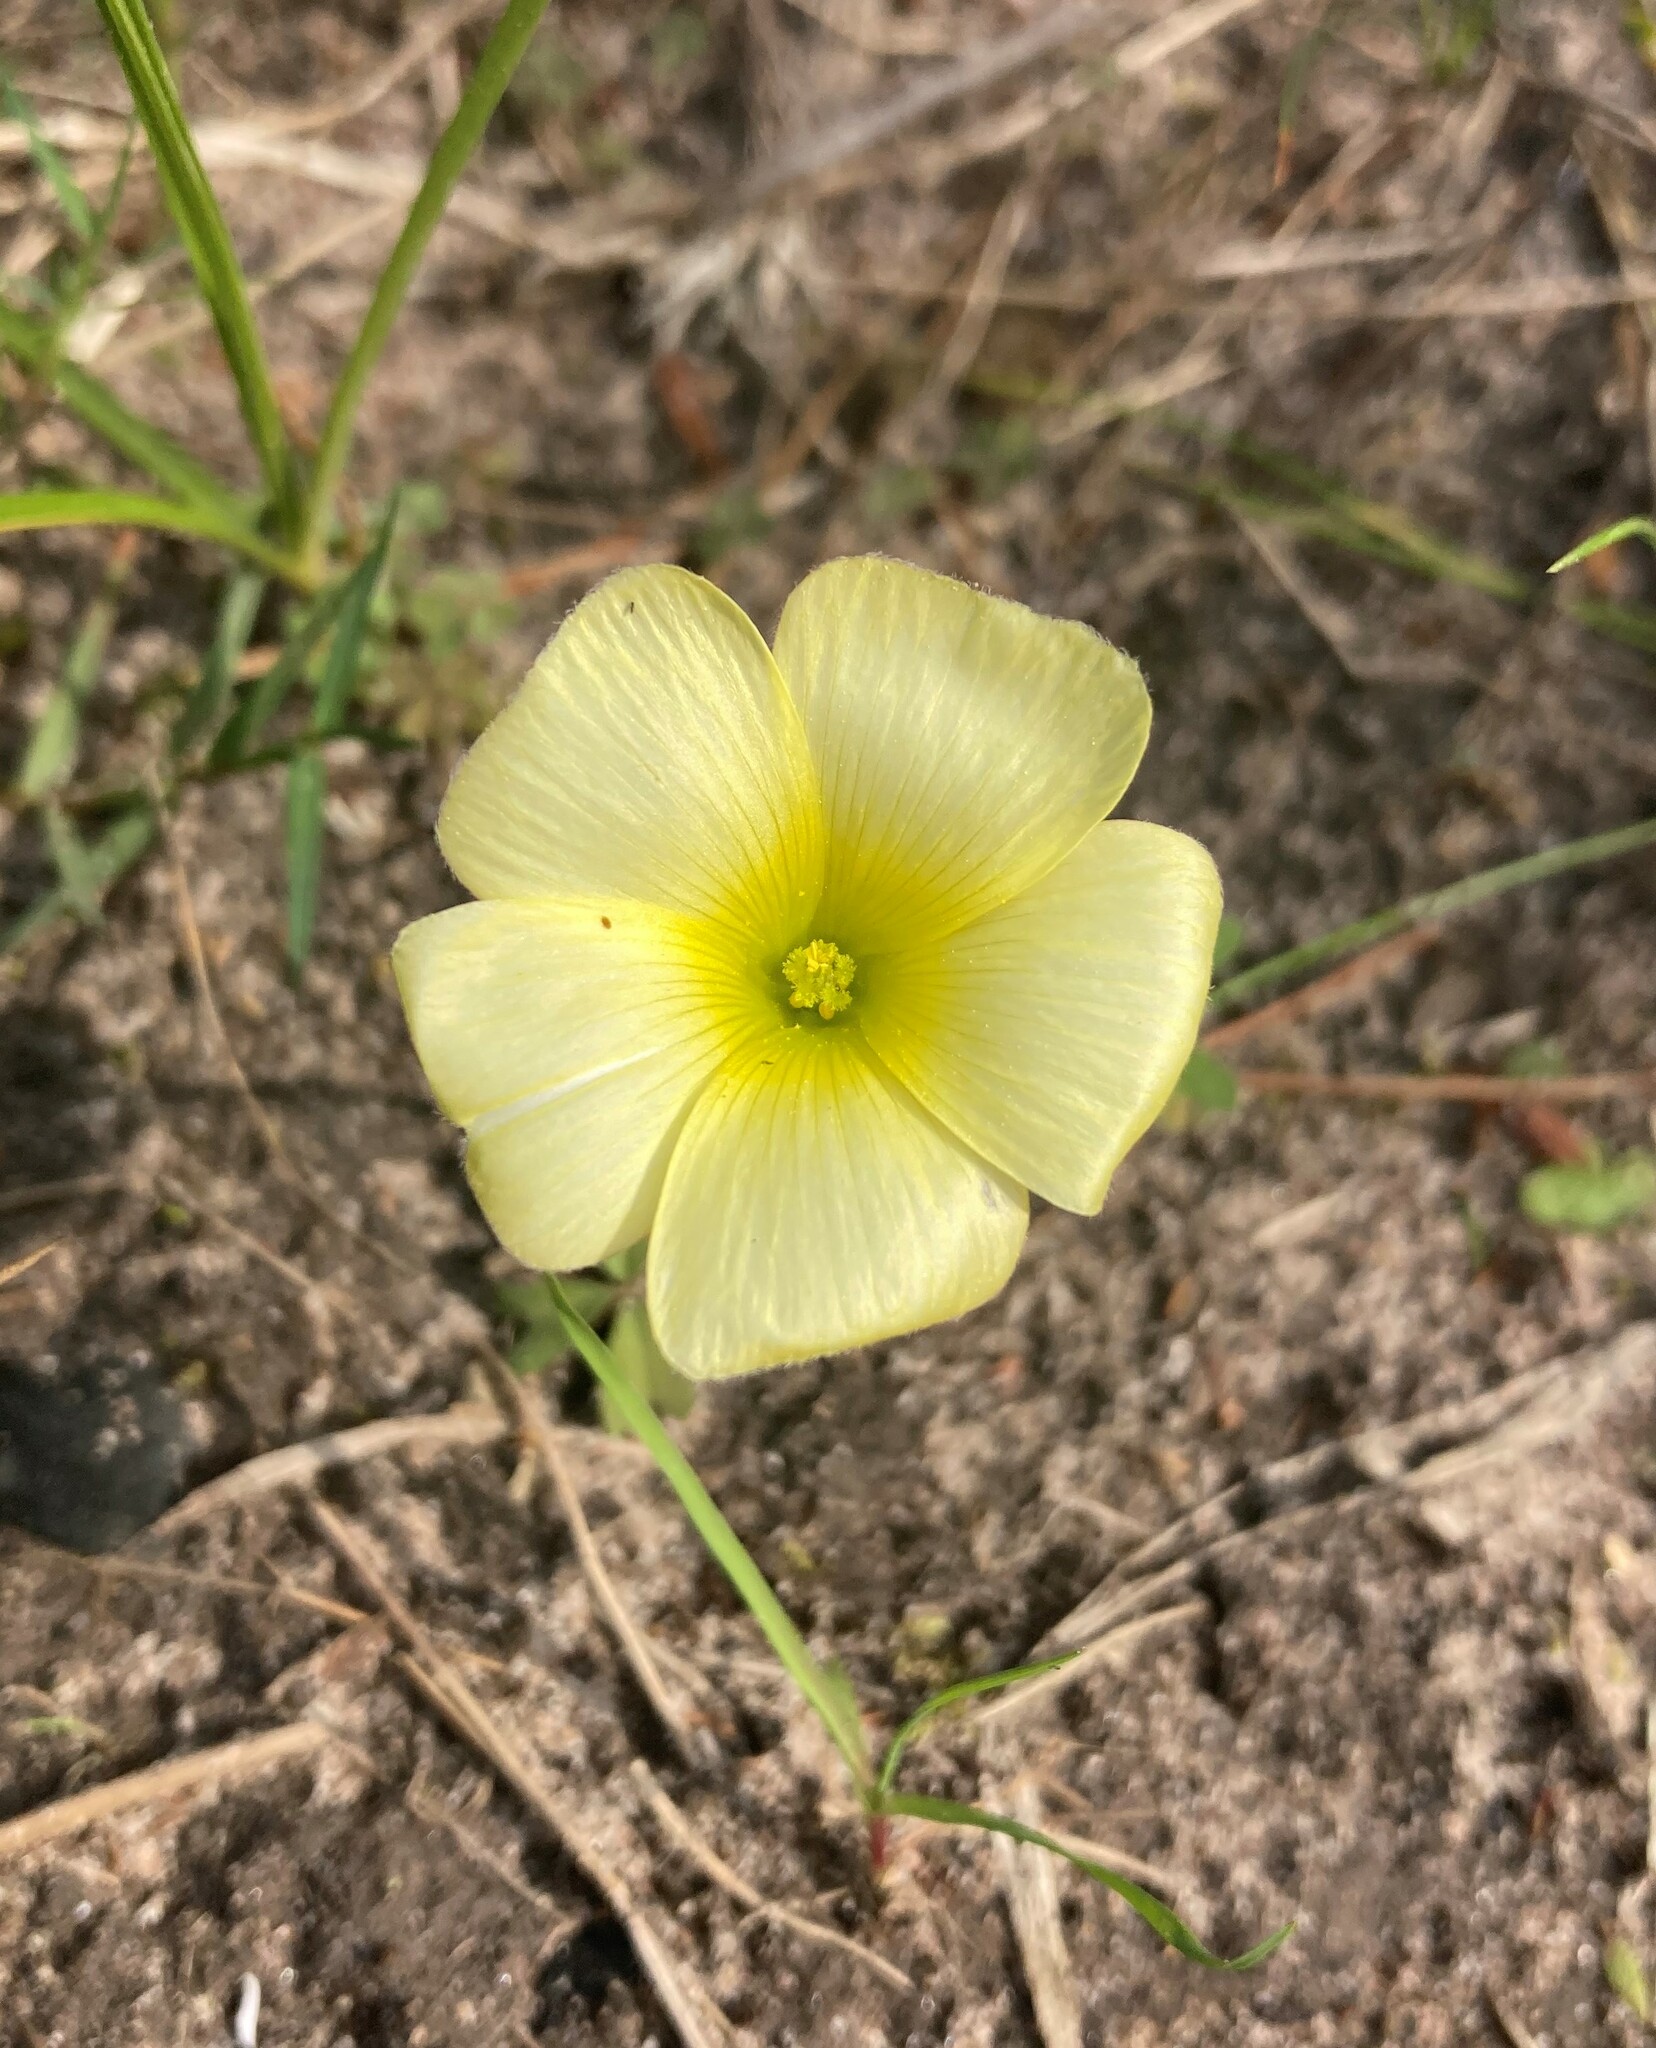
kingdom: Plantae
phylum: Tracheophyta
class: Magnoliopsida
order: Oxalidales
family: Oxalidaceae
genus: Oxalis
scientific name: Oxalis obtusa
